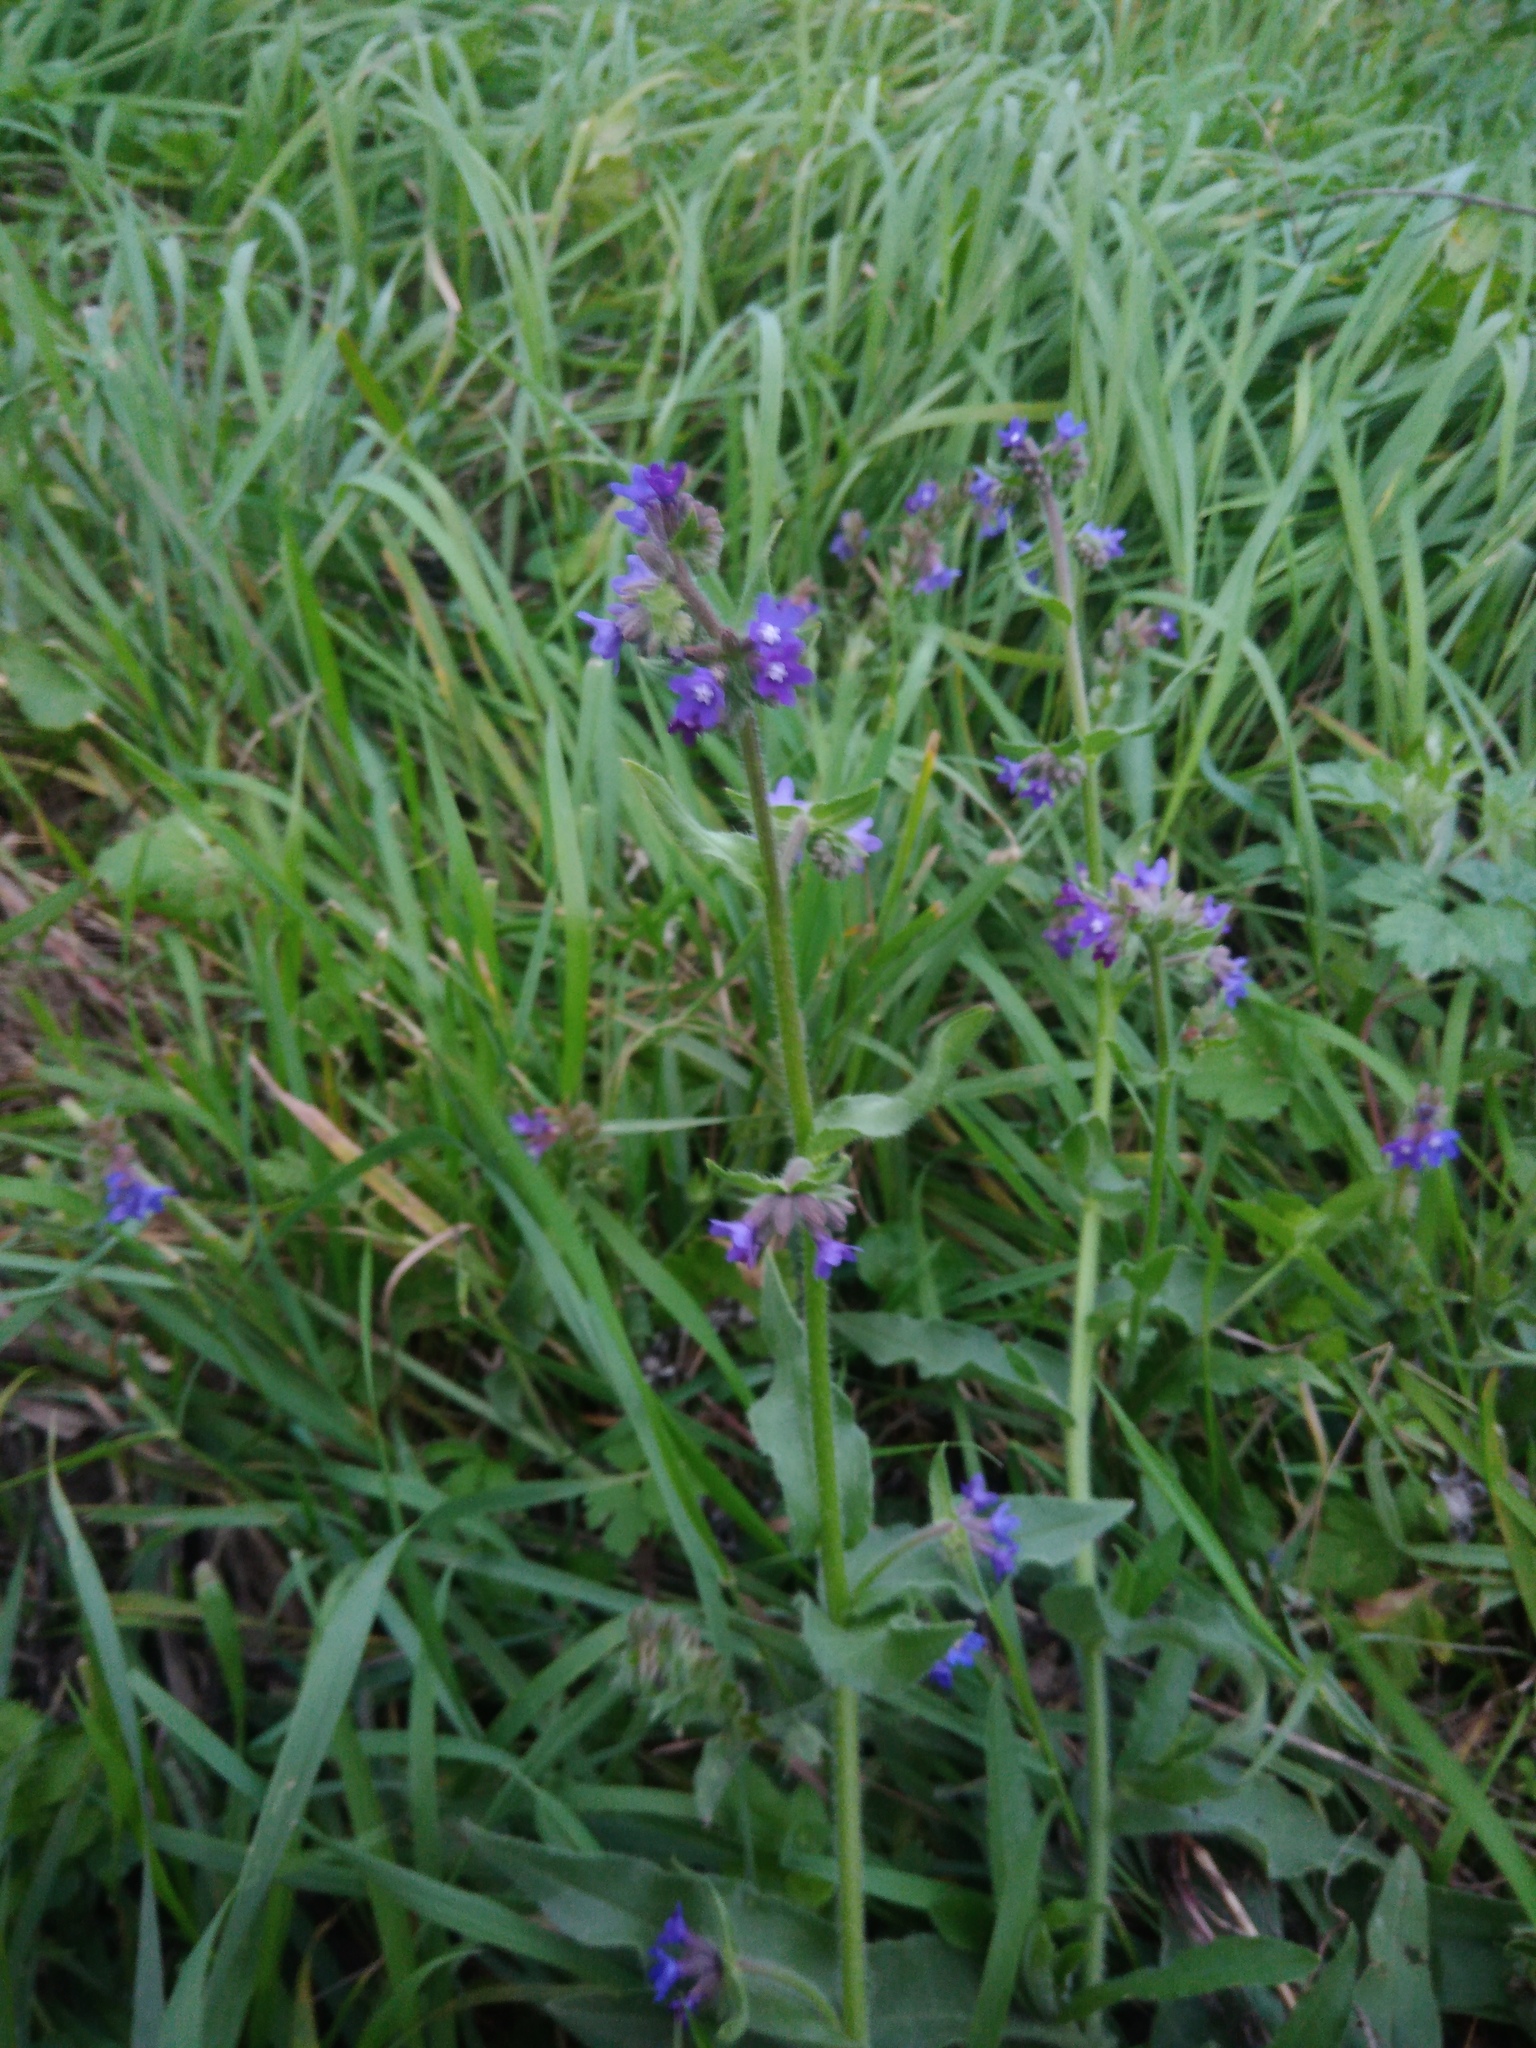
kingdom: Plantae
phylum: Tracheophyta
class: Magnoliopsida
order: Boraginales
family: Boraginaceae
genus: Anchusa
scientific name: Anchusa officinalis
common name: Alkanet
